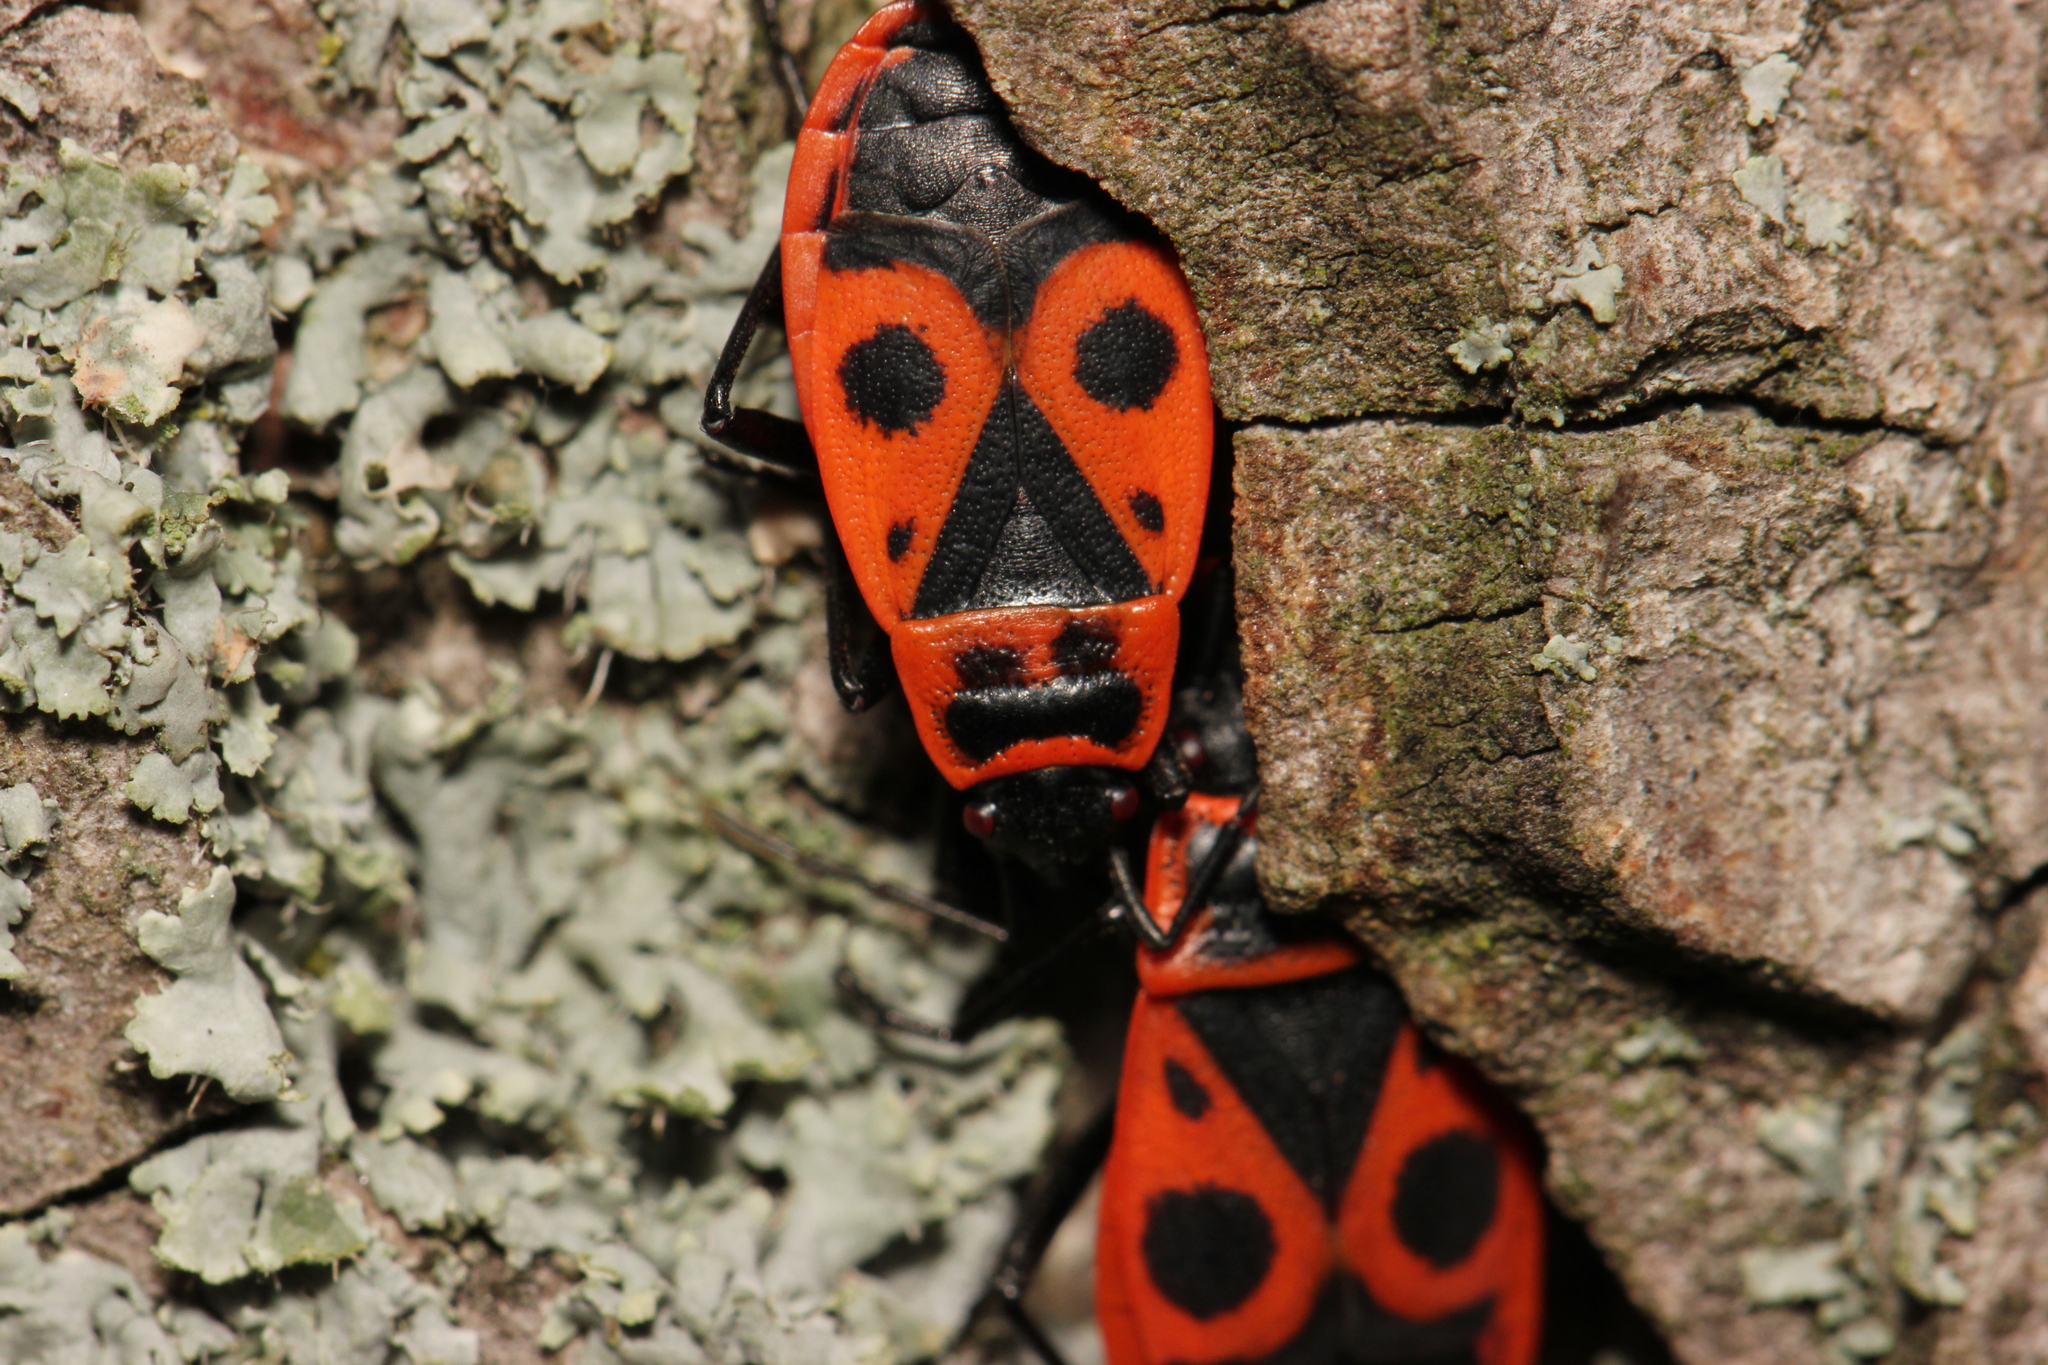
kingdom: Animalia
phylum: Arthropoda
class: Insecta
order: Hemiptera
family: Pyrrhocoridae
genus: Pyrrhocoris
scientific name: Pyrrhocoris apterus
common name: Firebug
